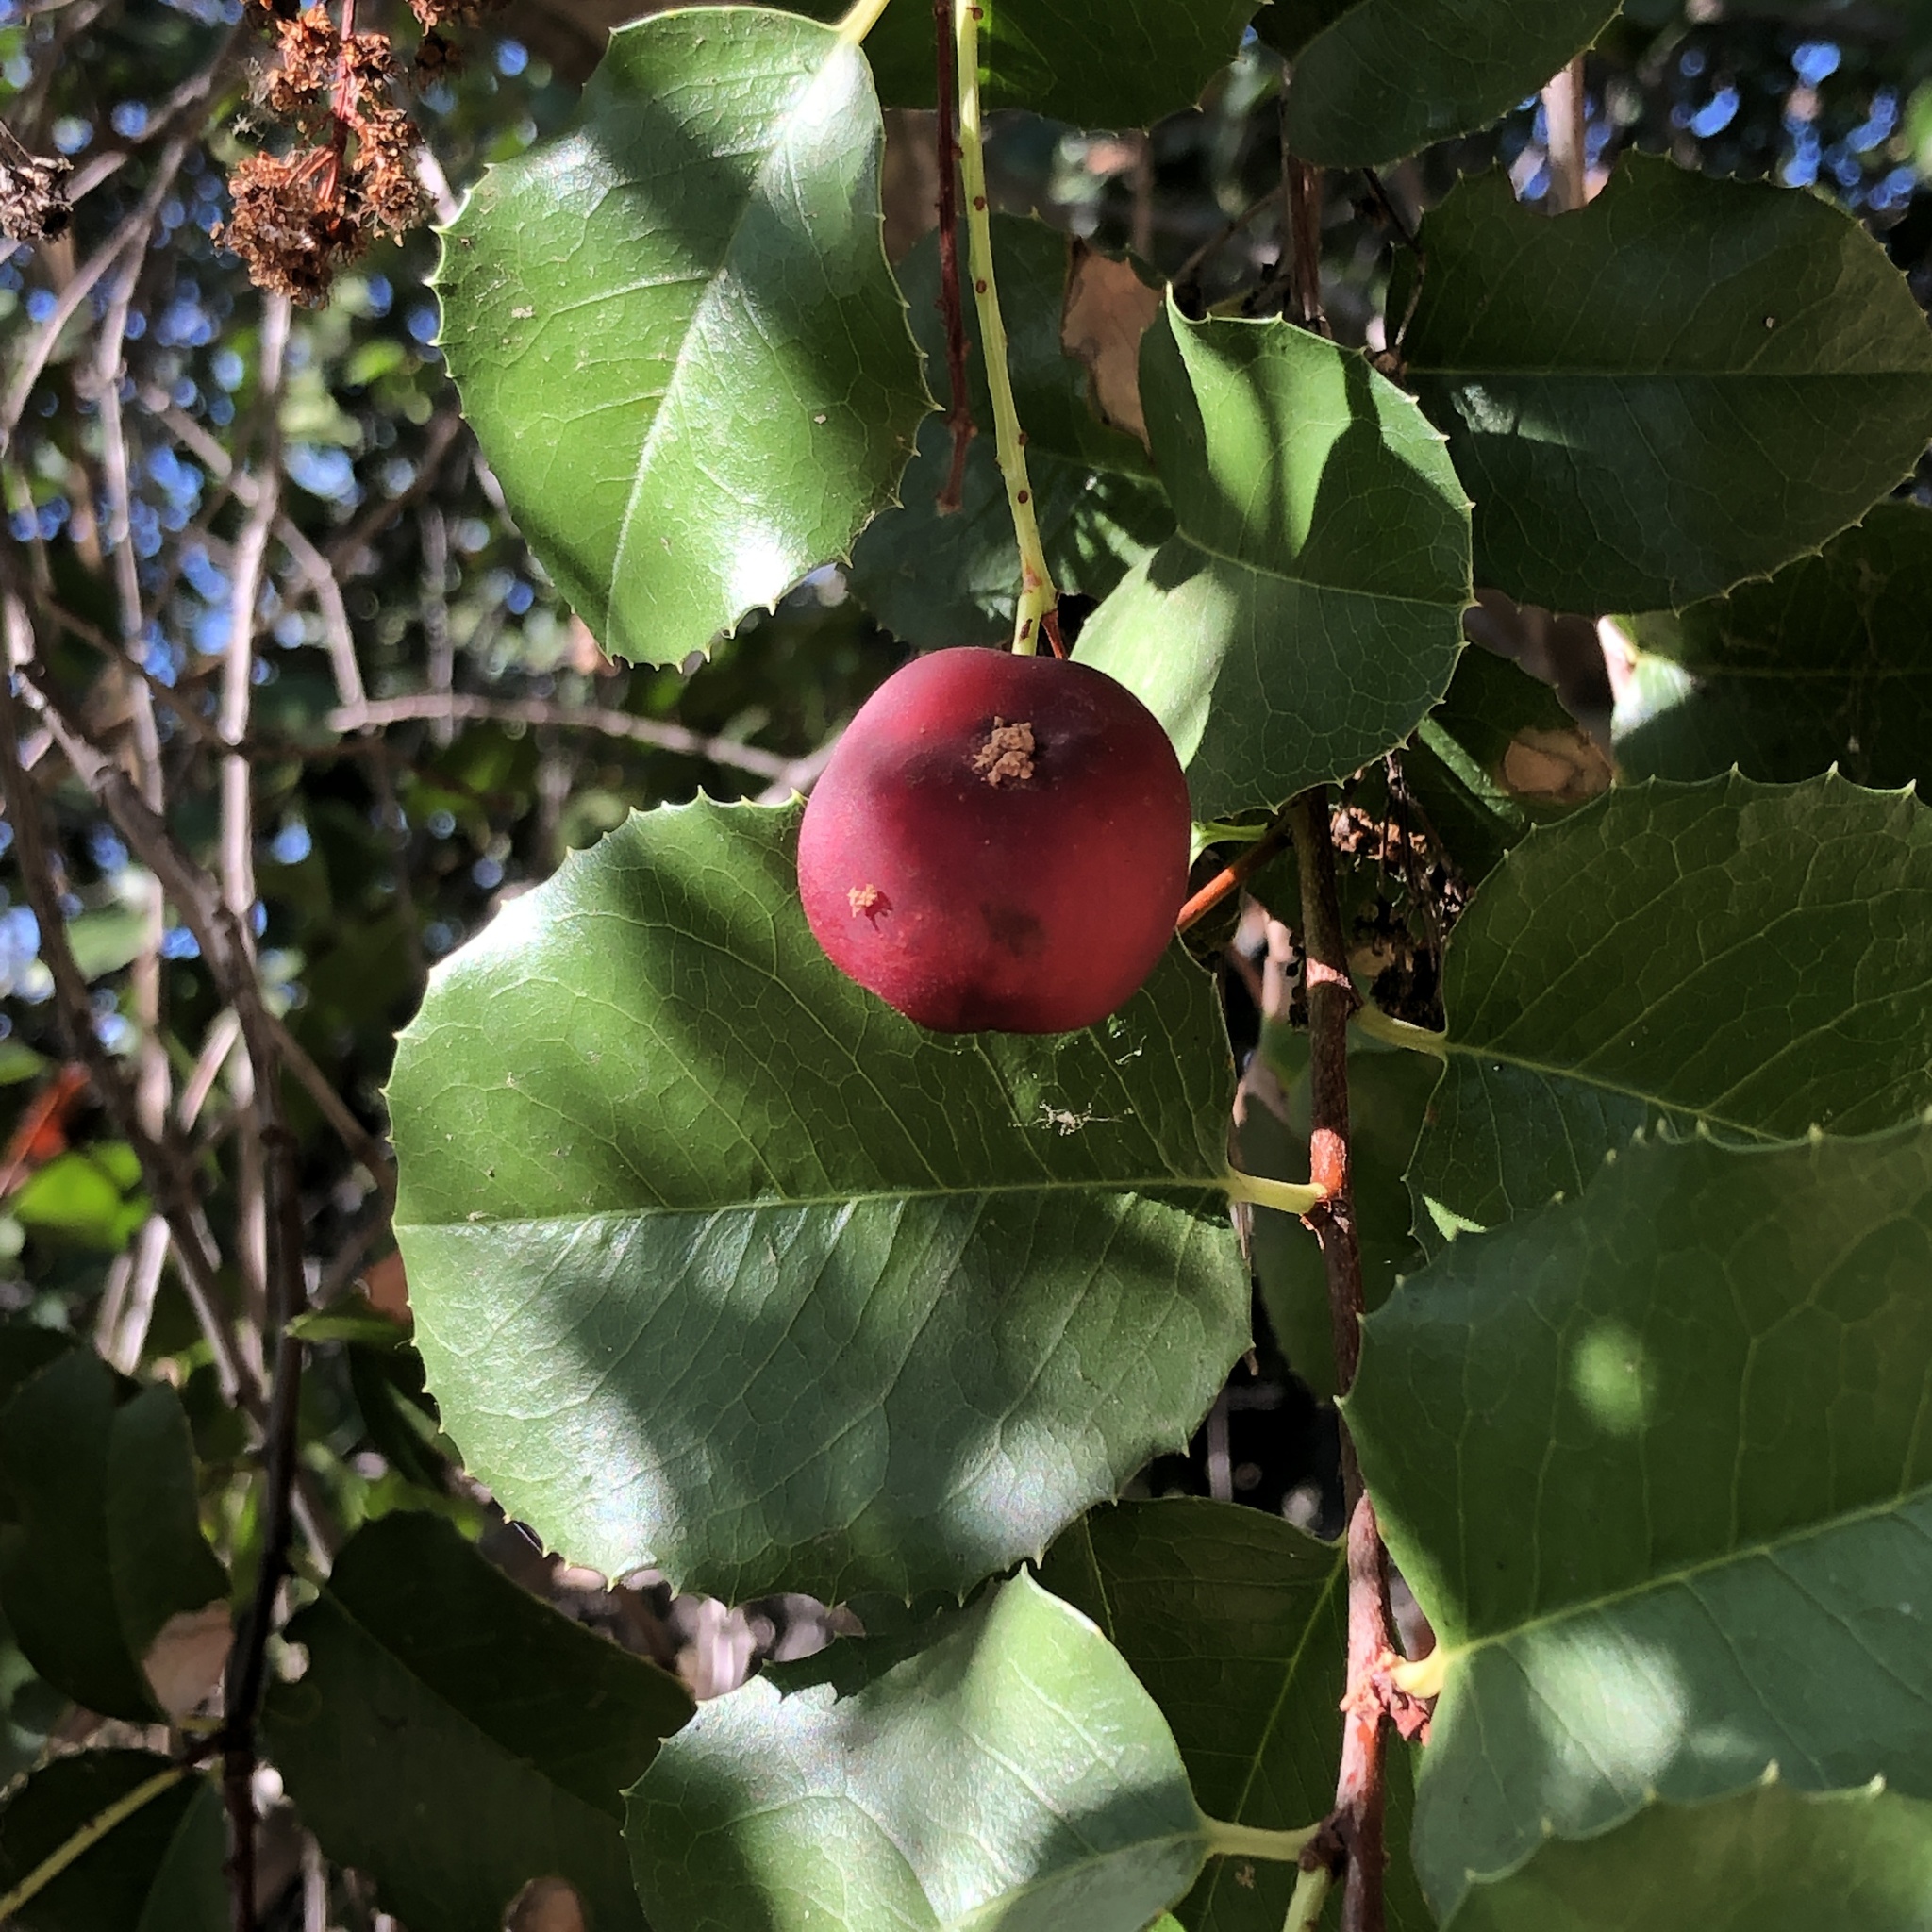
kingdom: Plantae
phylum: Tracheophyta
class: Magnoliopsida
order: Rosales
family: Rosaceae
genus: Prunus
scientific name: Prunus ilicifolia
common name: Hollyleaf cherry
